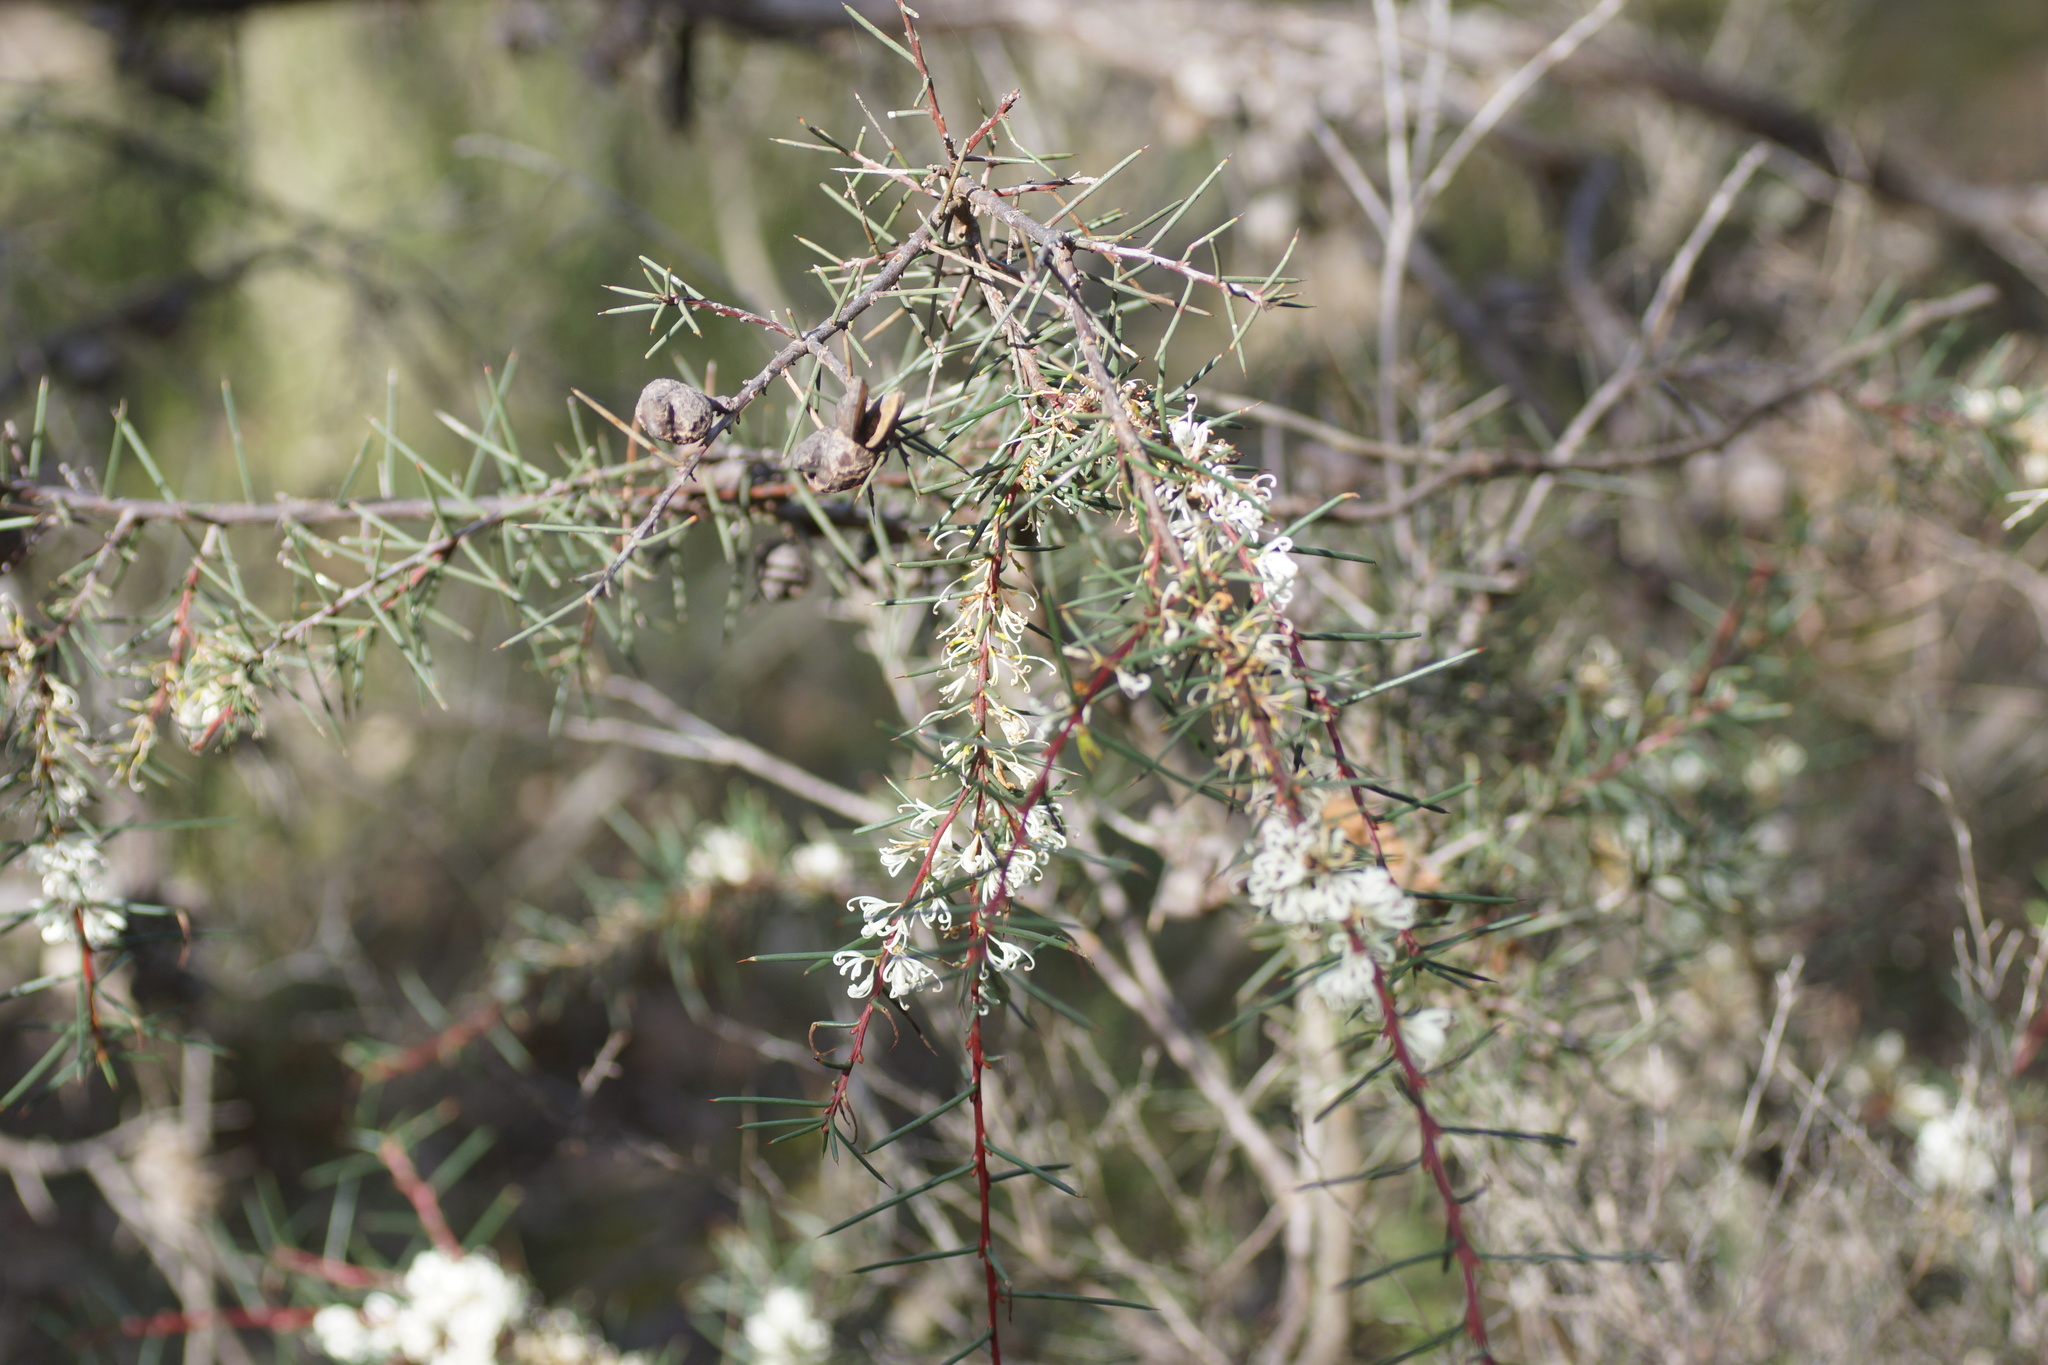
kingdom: Plantae
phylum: Tracheophyta
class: Magnoliopsida
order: Proteales
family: Proteaceae
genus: Hakea
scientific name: Hakea decurrens
